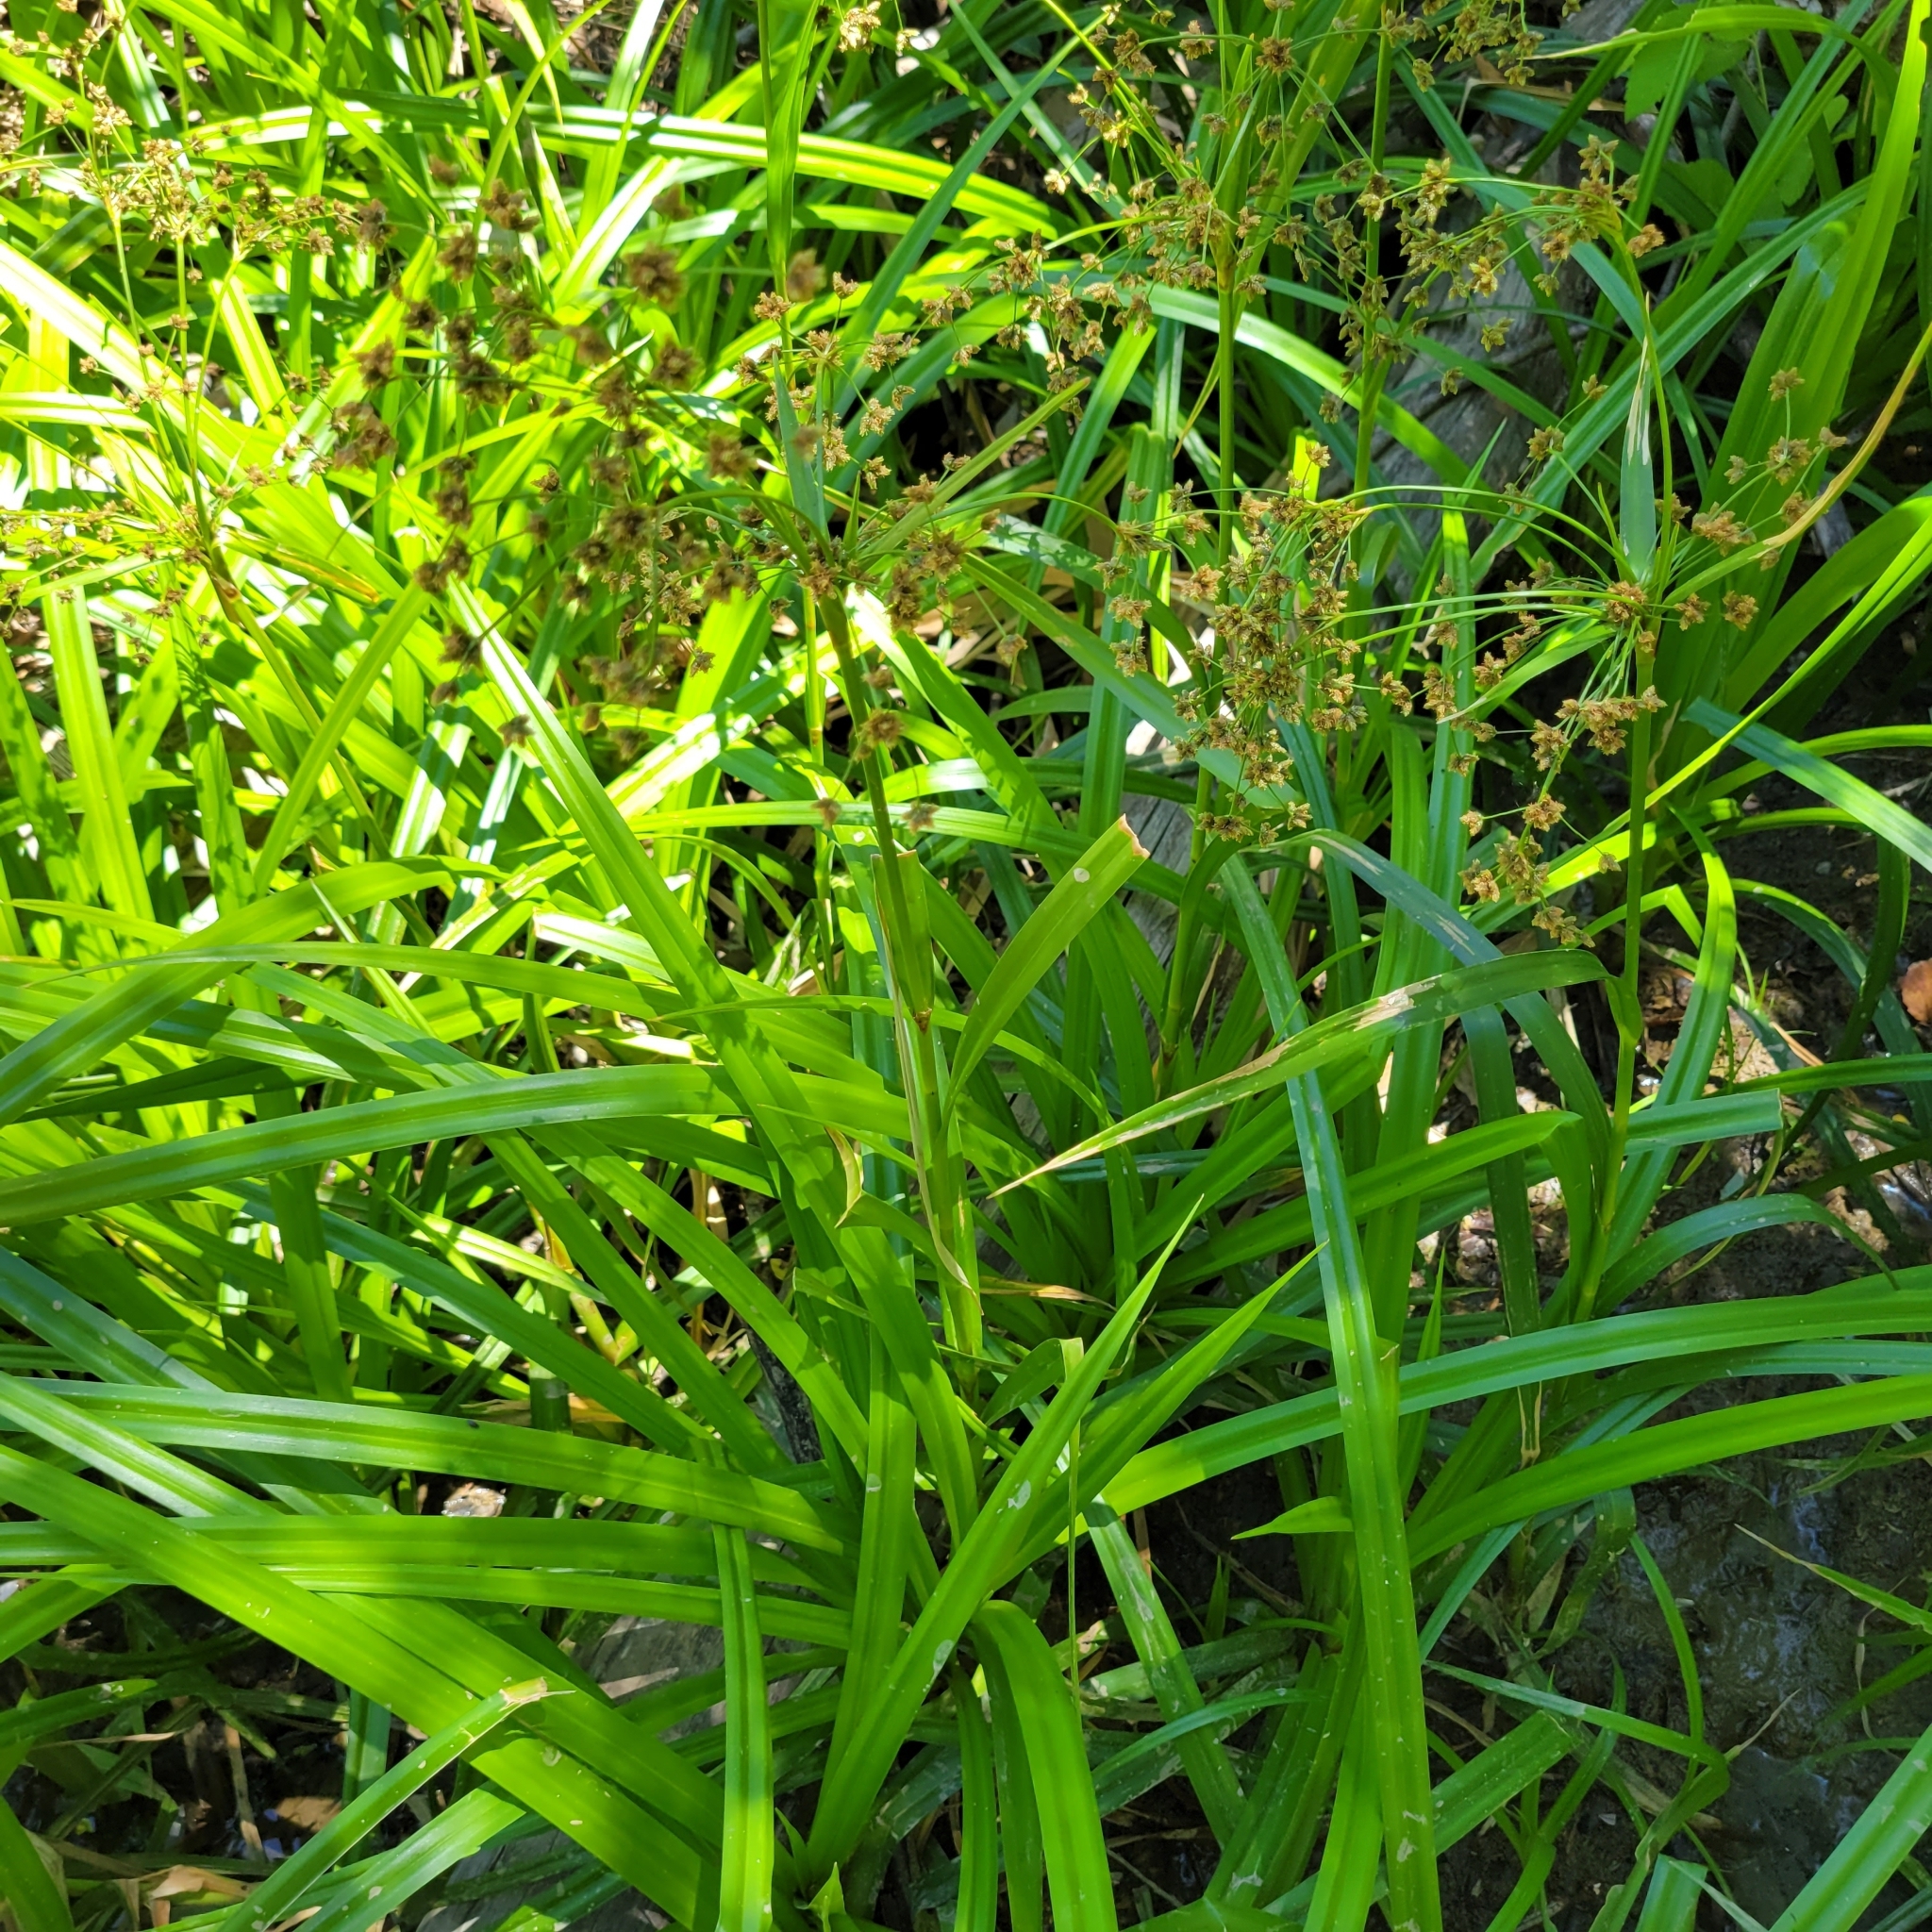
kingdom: Plantae
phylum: Tracheophyta
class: Liliopsida
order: Poales
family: Cyperaceae
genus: Scirpus
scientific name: Scirpus microcarpus
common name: Panicled bulrush
